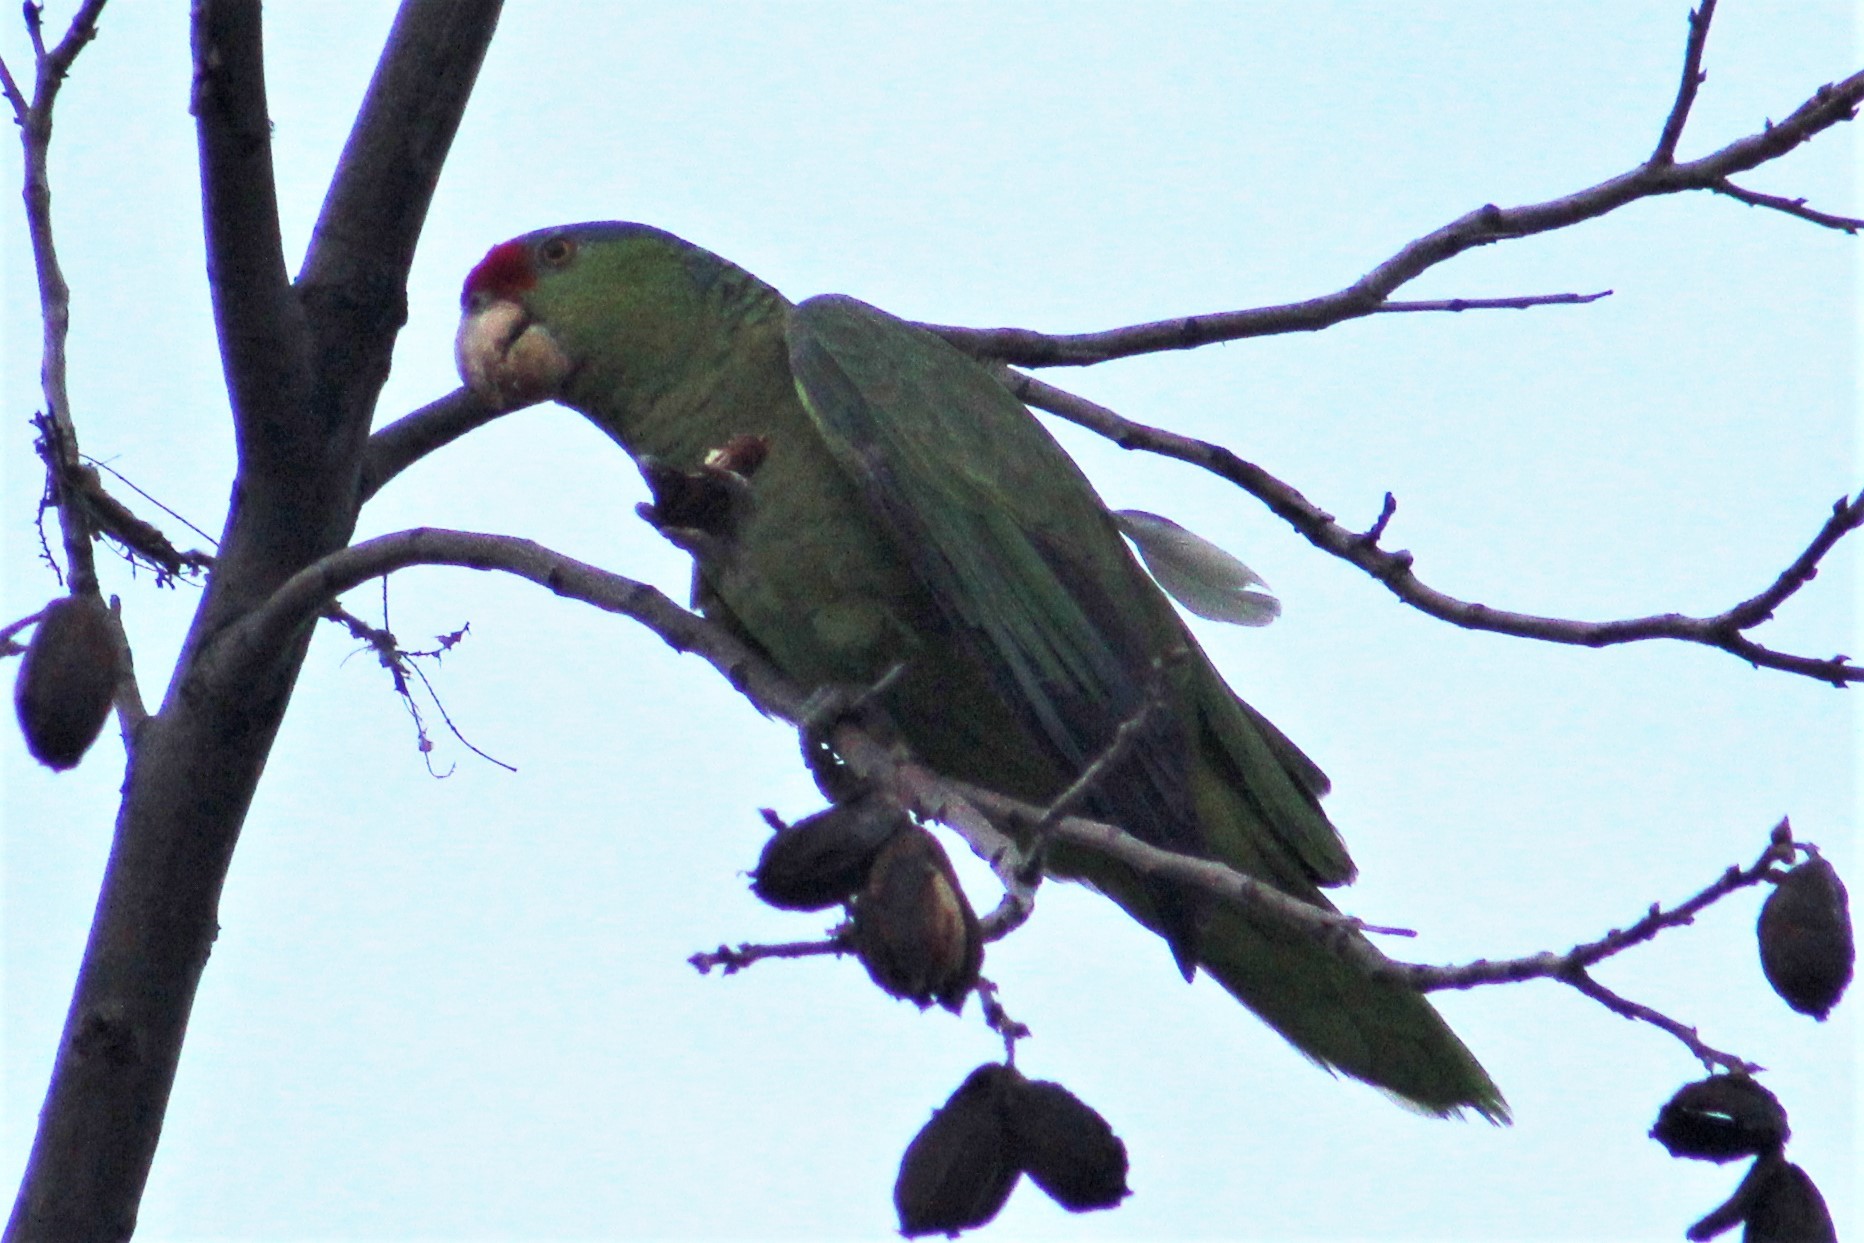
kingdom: Animalia
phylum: Chordata
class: Aves
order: Psittaciformes
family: Psittacidae
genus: Amazona
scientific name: Amazona finschi
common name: Lilac-crowned amazon
